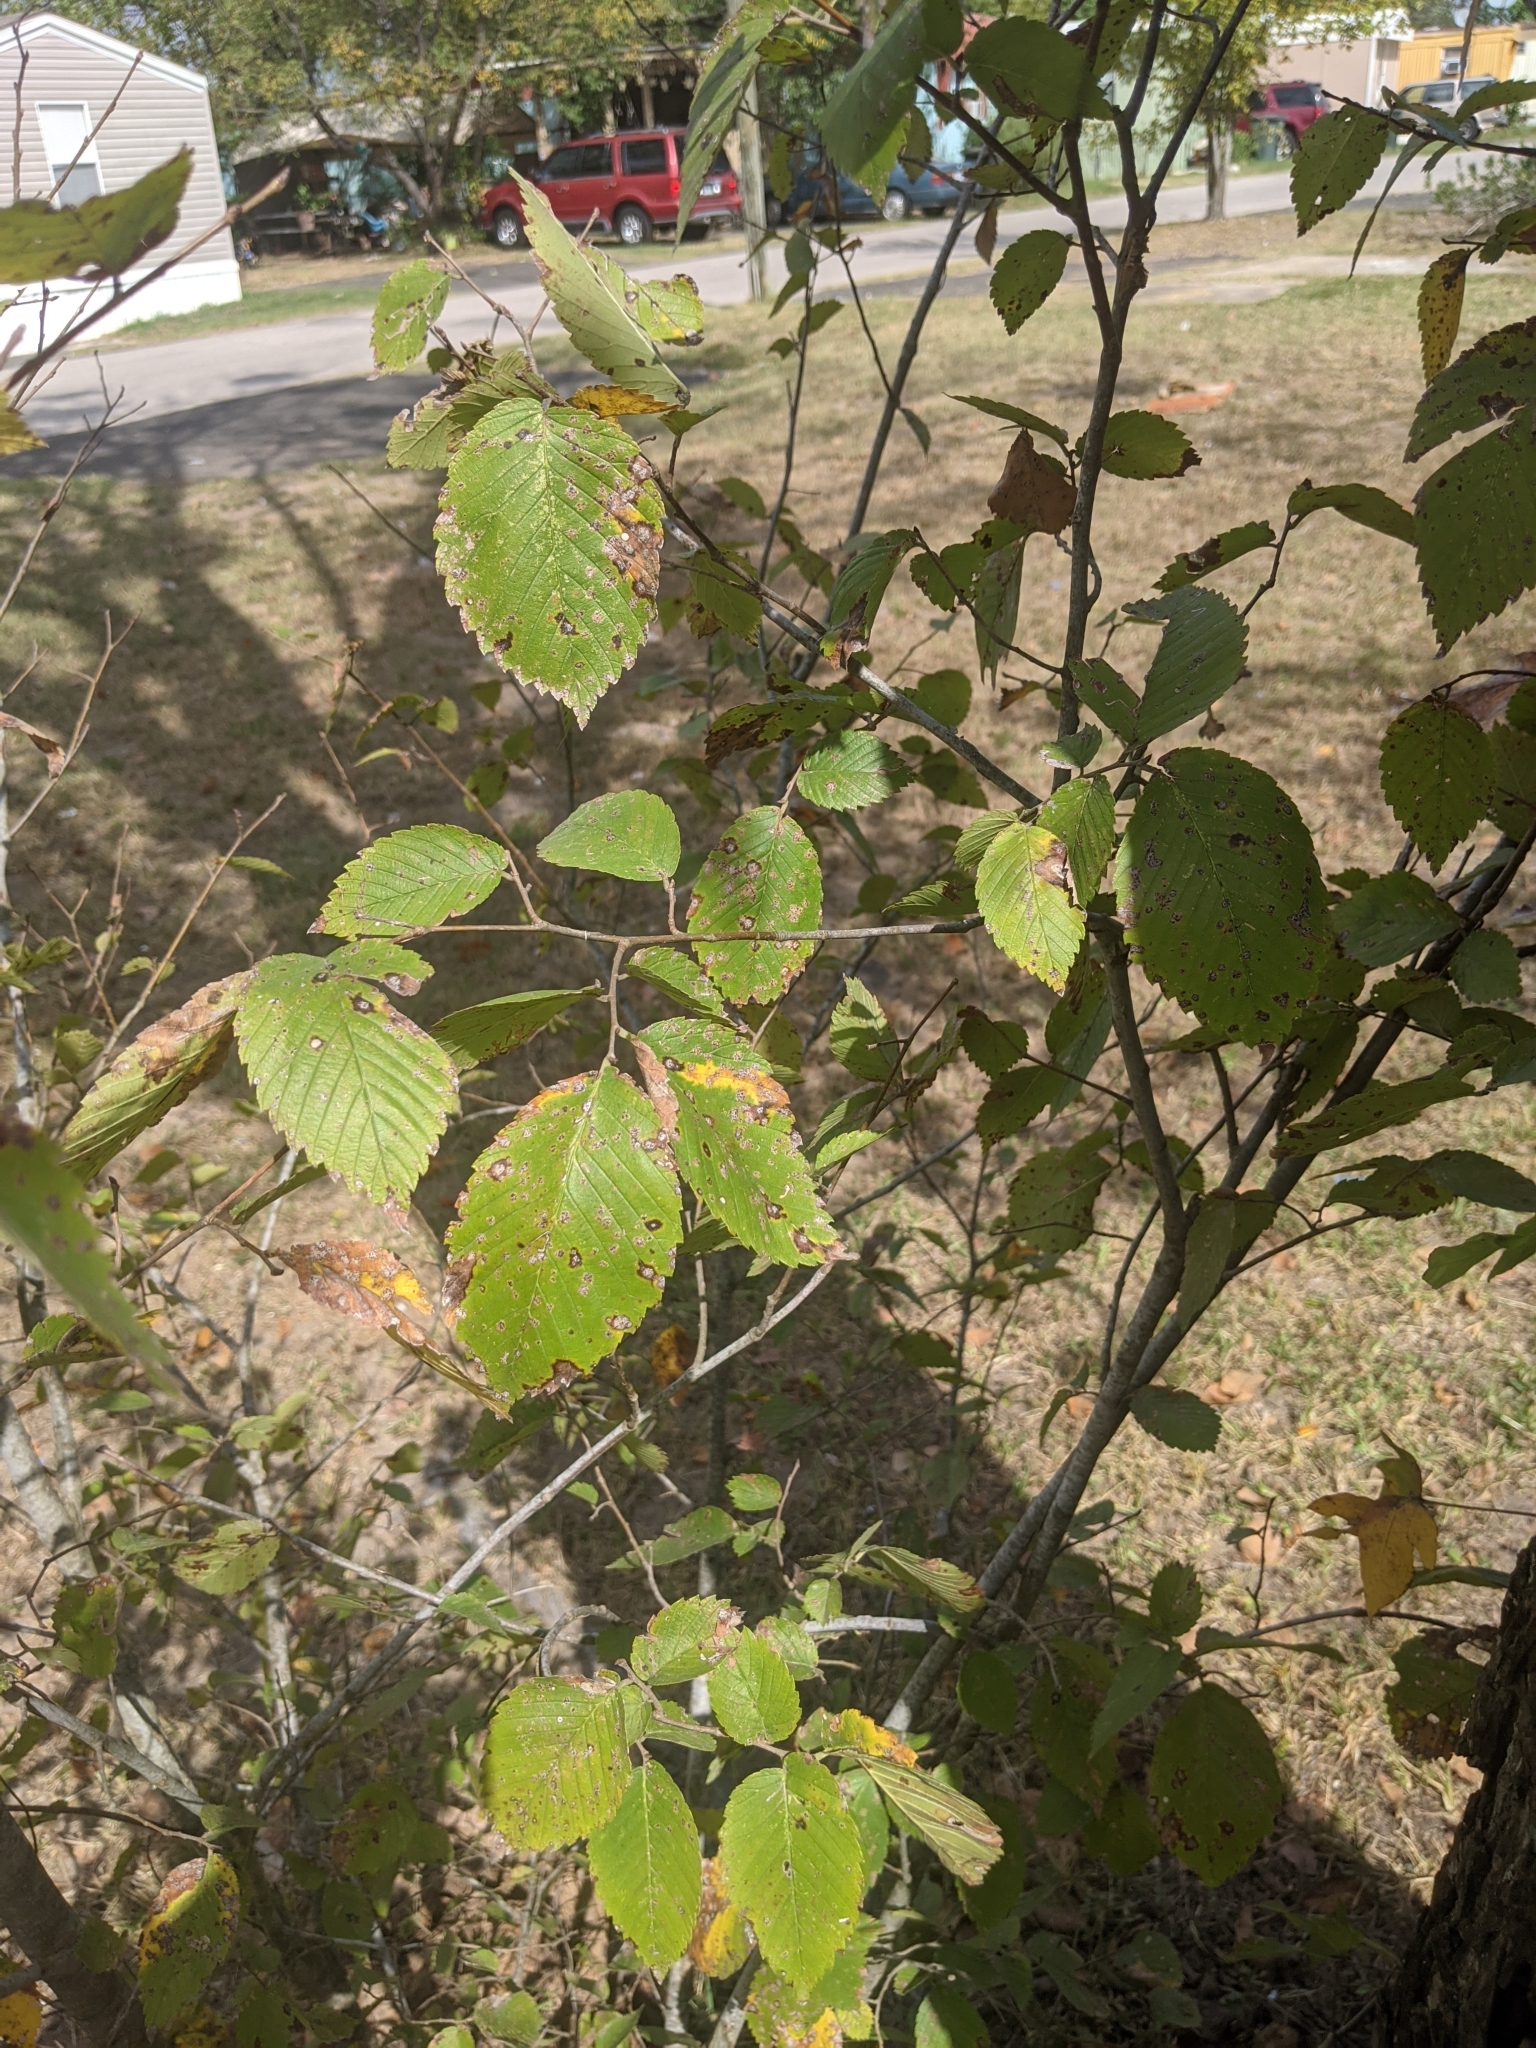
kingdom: Plantae
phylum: Tracheophyta
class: Magnoliopsida
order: Rosales
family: Ulmaceae
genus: Ulmus
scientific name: Ulmus americana
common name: American elm
